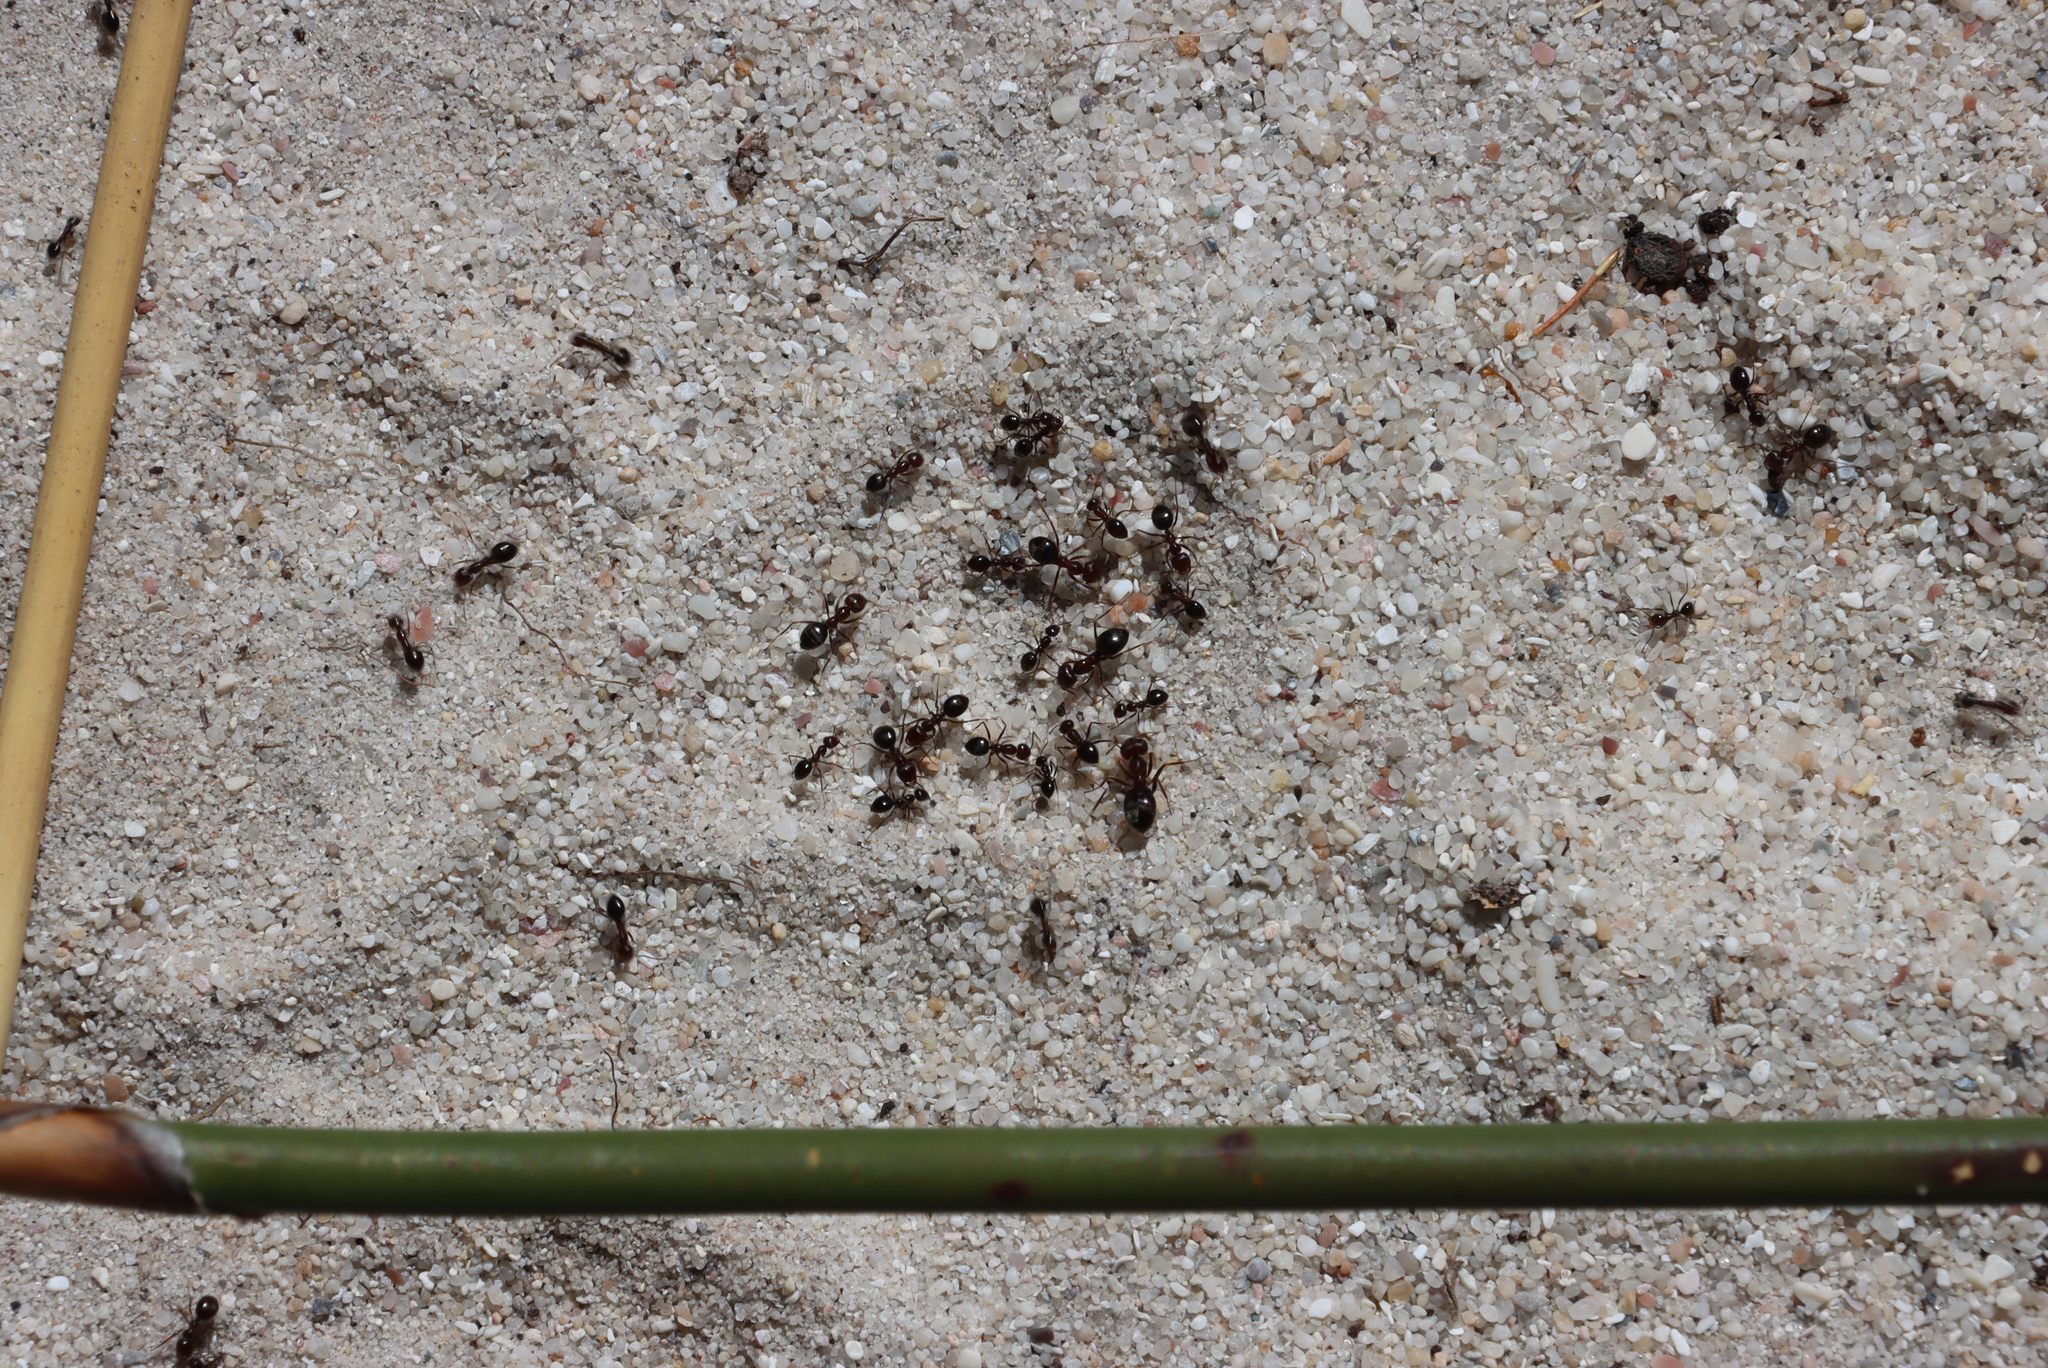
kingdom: Animalia
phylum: Arthropoda
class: Insecta
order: Hymenoptera
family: Formicidae
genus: Anoplolepis
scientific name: Anoplolepis steingroeveri
